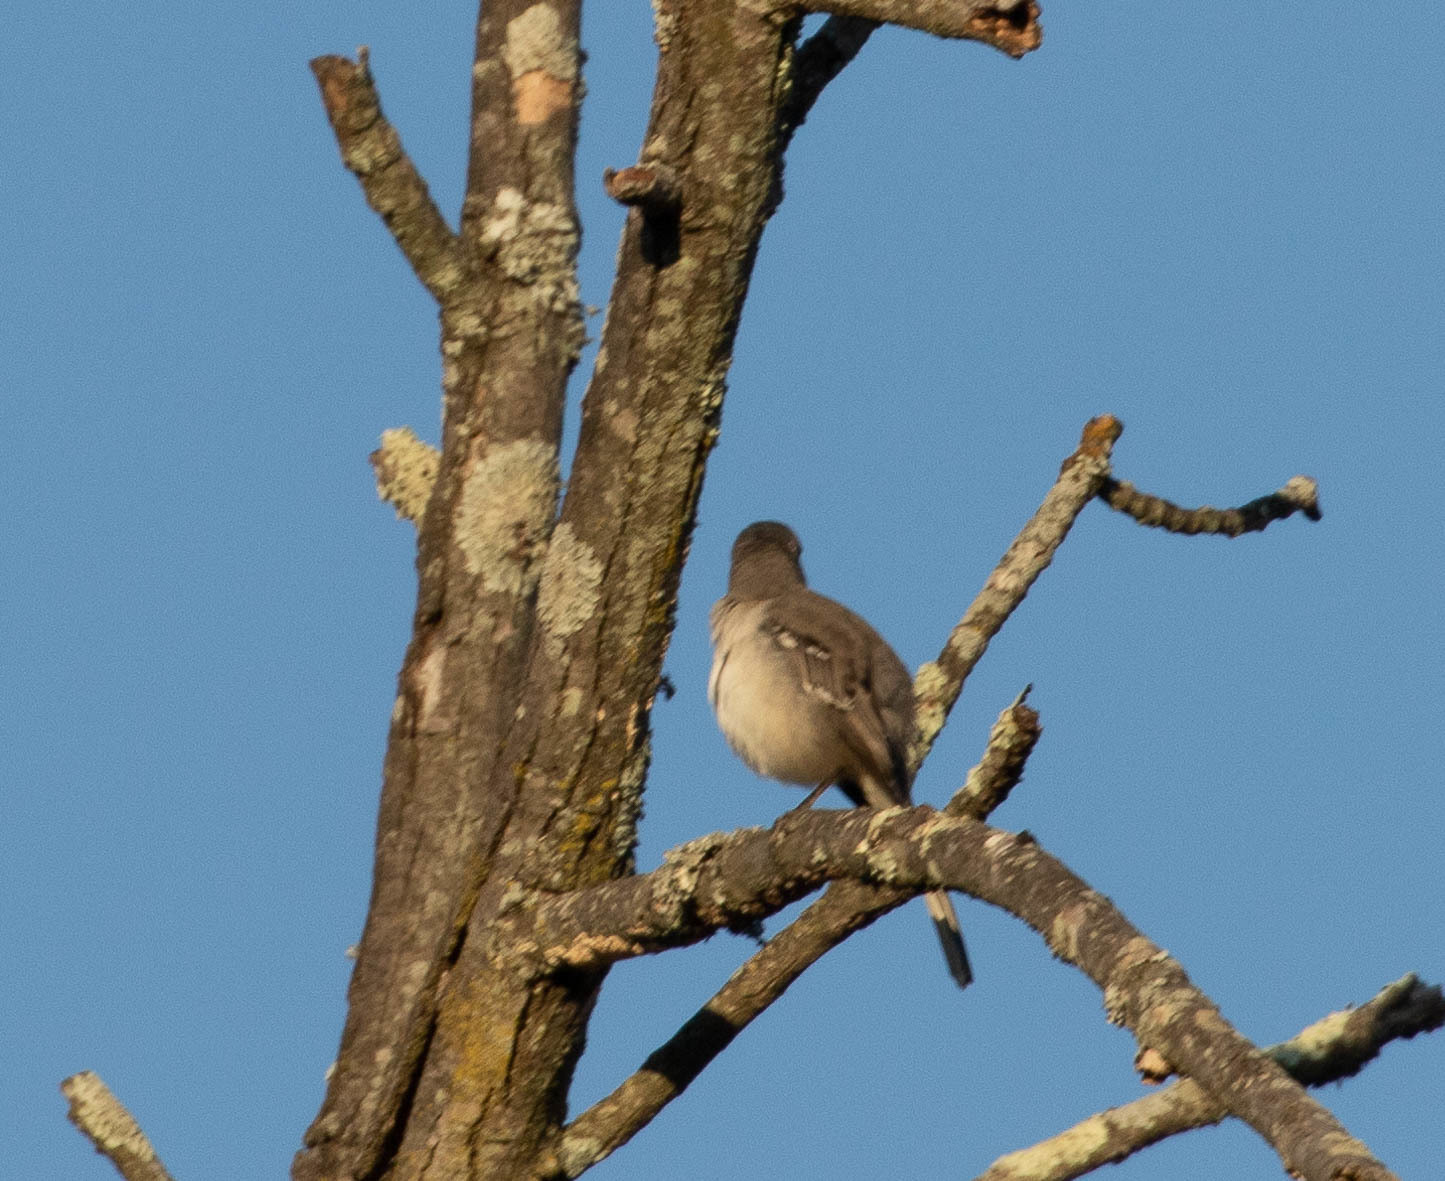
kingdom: Animalia
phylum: Chordata
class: Aves
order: Passeriformes
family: Mimidae
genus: Mimus
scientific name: Mimus polyglottos
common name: Northern mockingbird
